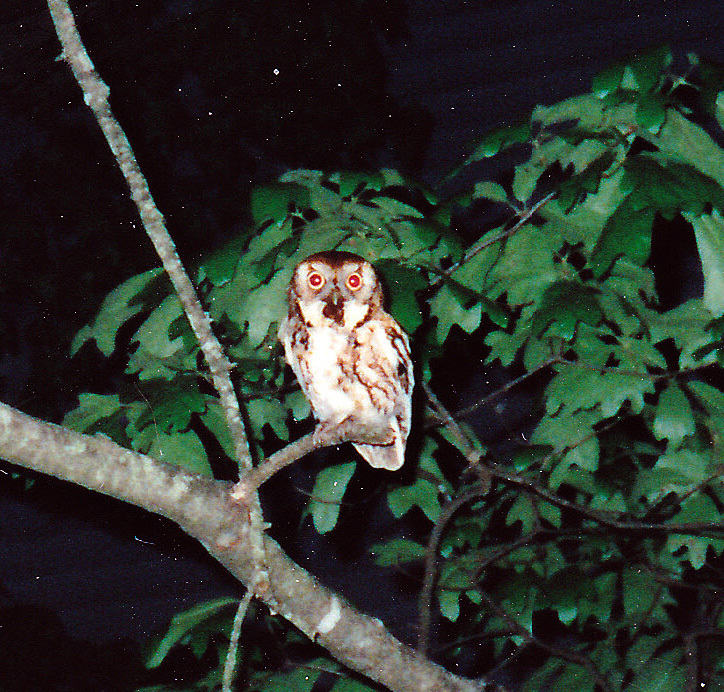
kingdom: Animalia
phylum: Chordata
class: Aves
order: Strigiformes
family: Strigidae
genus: Megascops
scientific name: Megascops asio
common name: Eastern screech-owl
